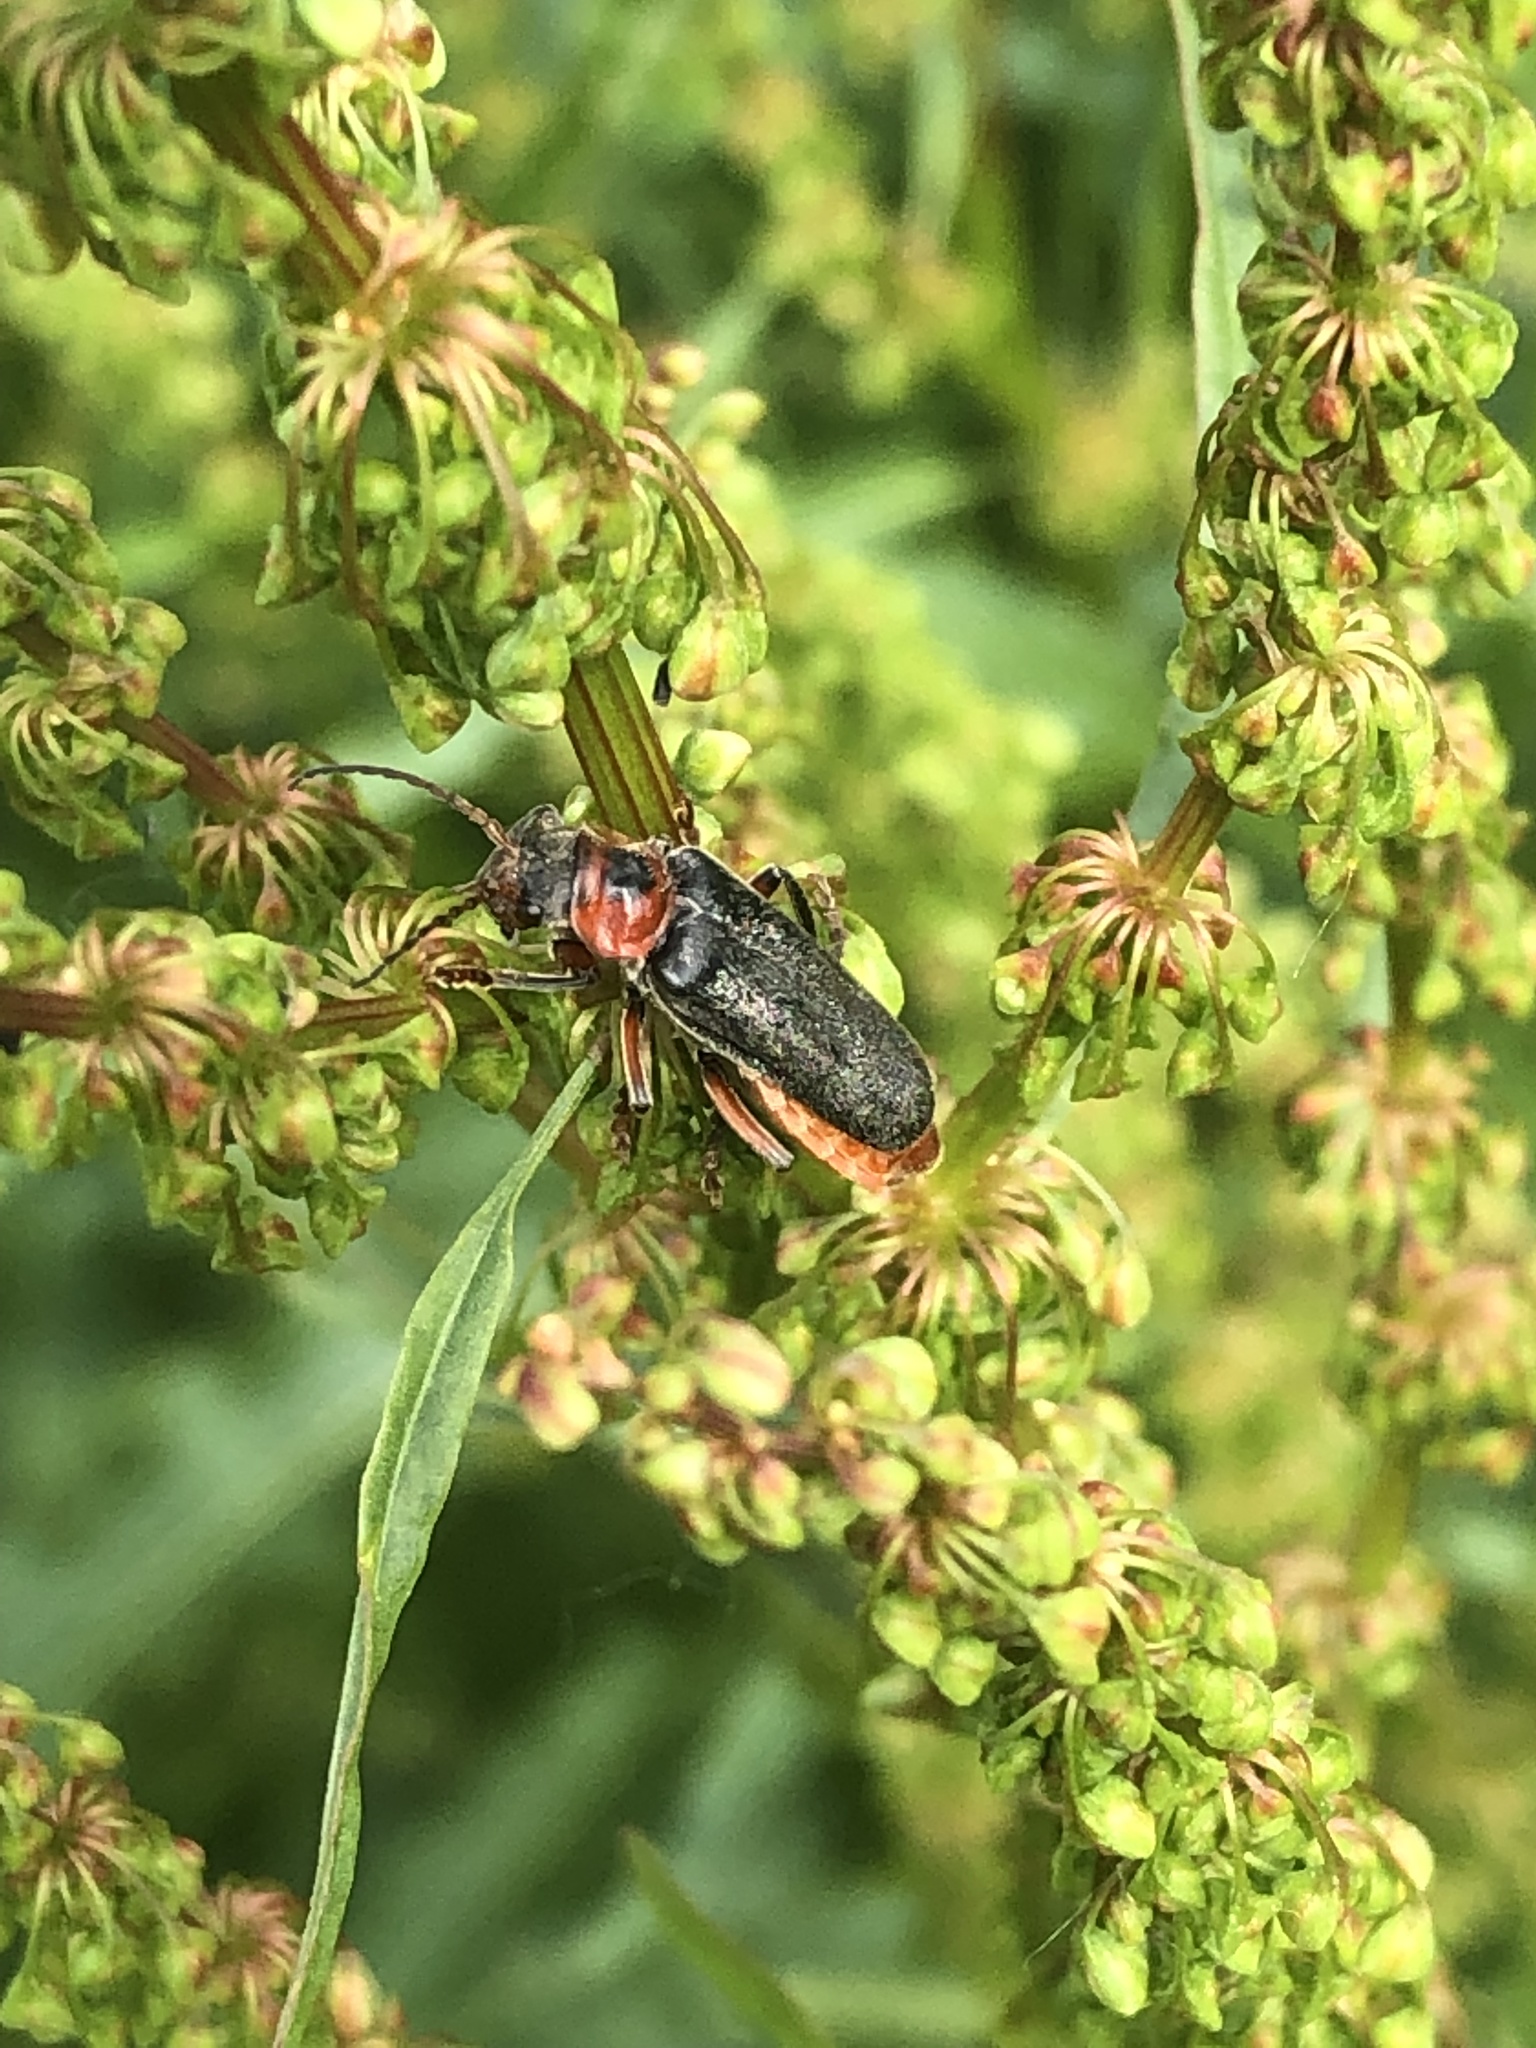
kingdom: Animalia
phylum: Arthropoda
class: Insecta
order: Coleoptera
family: Cantharidae
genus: Cantharis
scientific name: Cantharis rustica
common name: Soldier beetle
